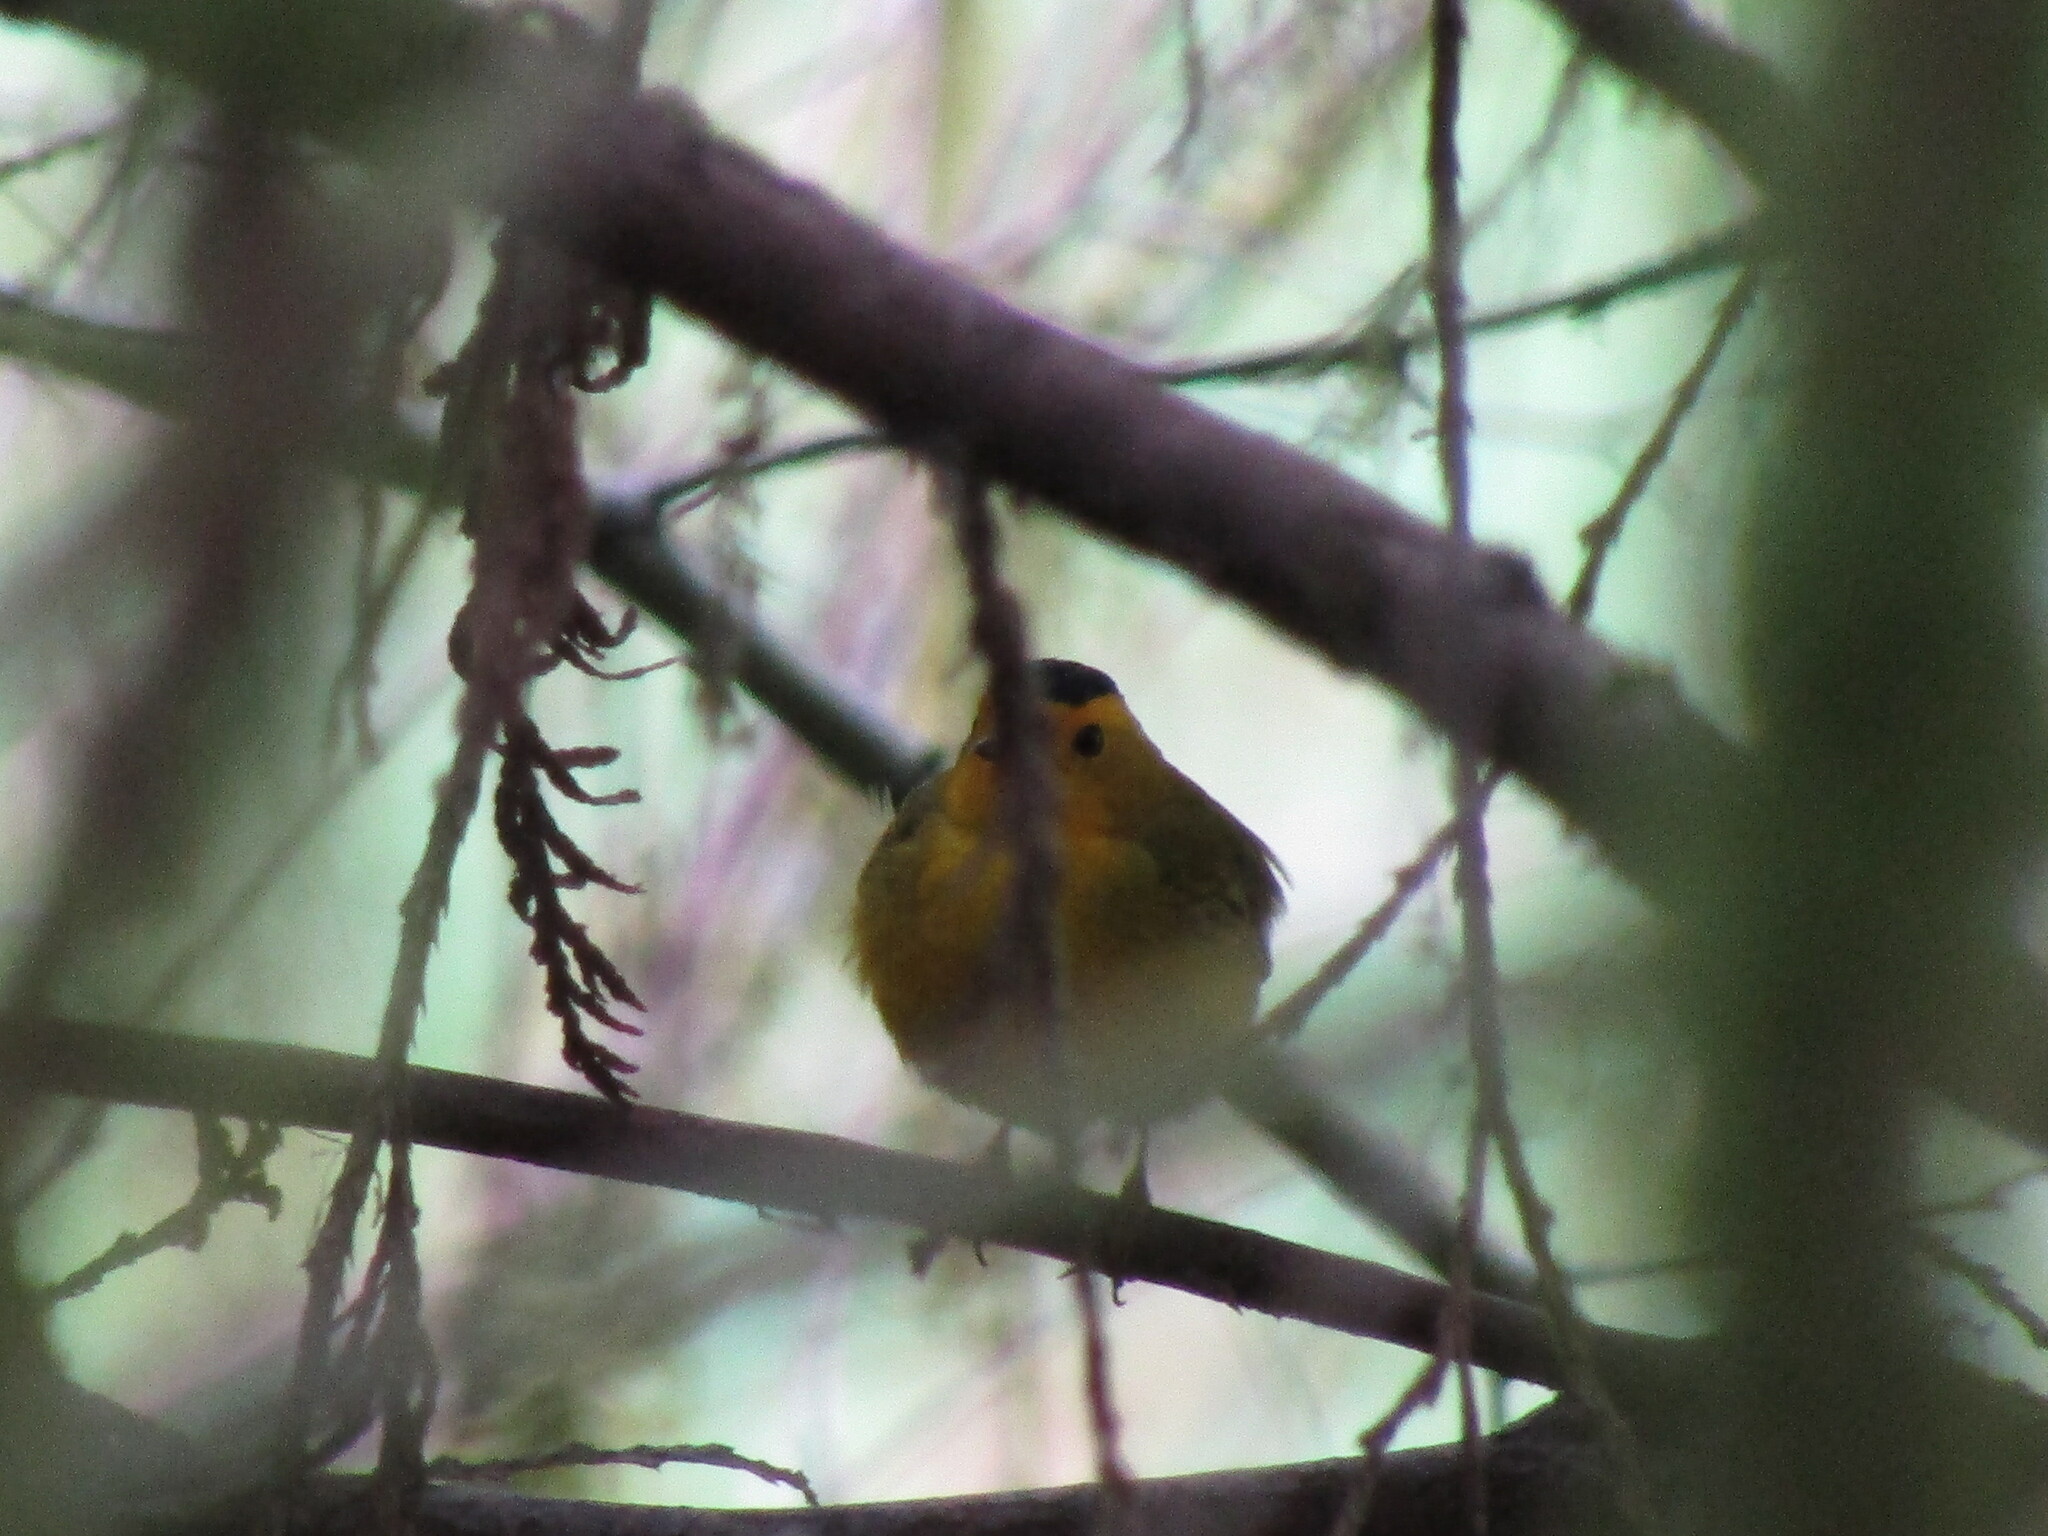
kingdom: Animalia
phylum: Chordata
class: Aves
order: Passeriformes
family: Parulidae
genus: Cardellina
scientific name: Cardellina pusilla
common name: Wilson's warbler
